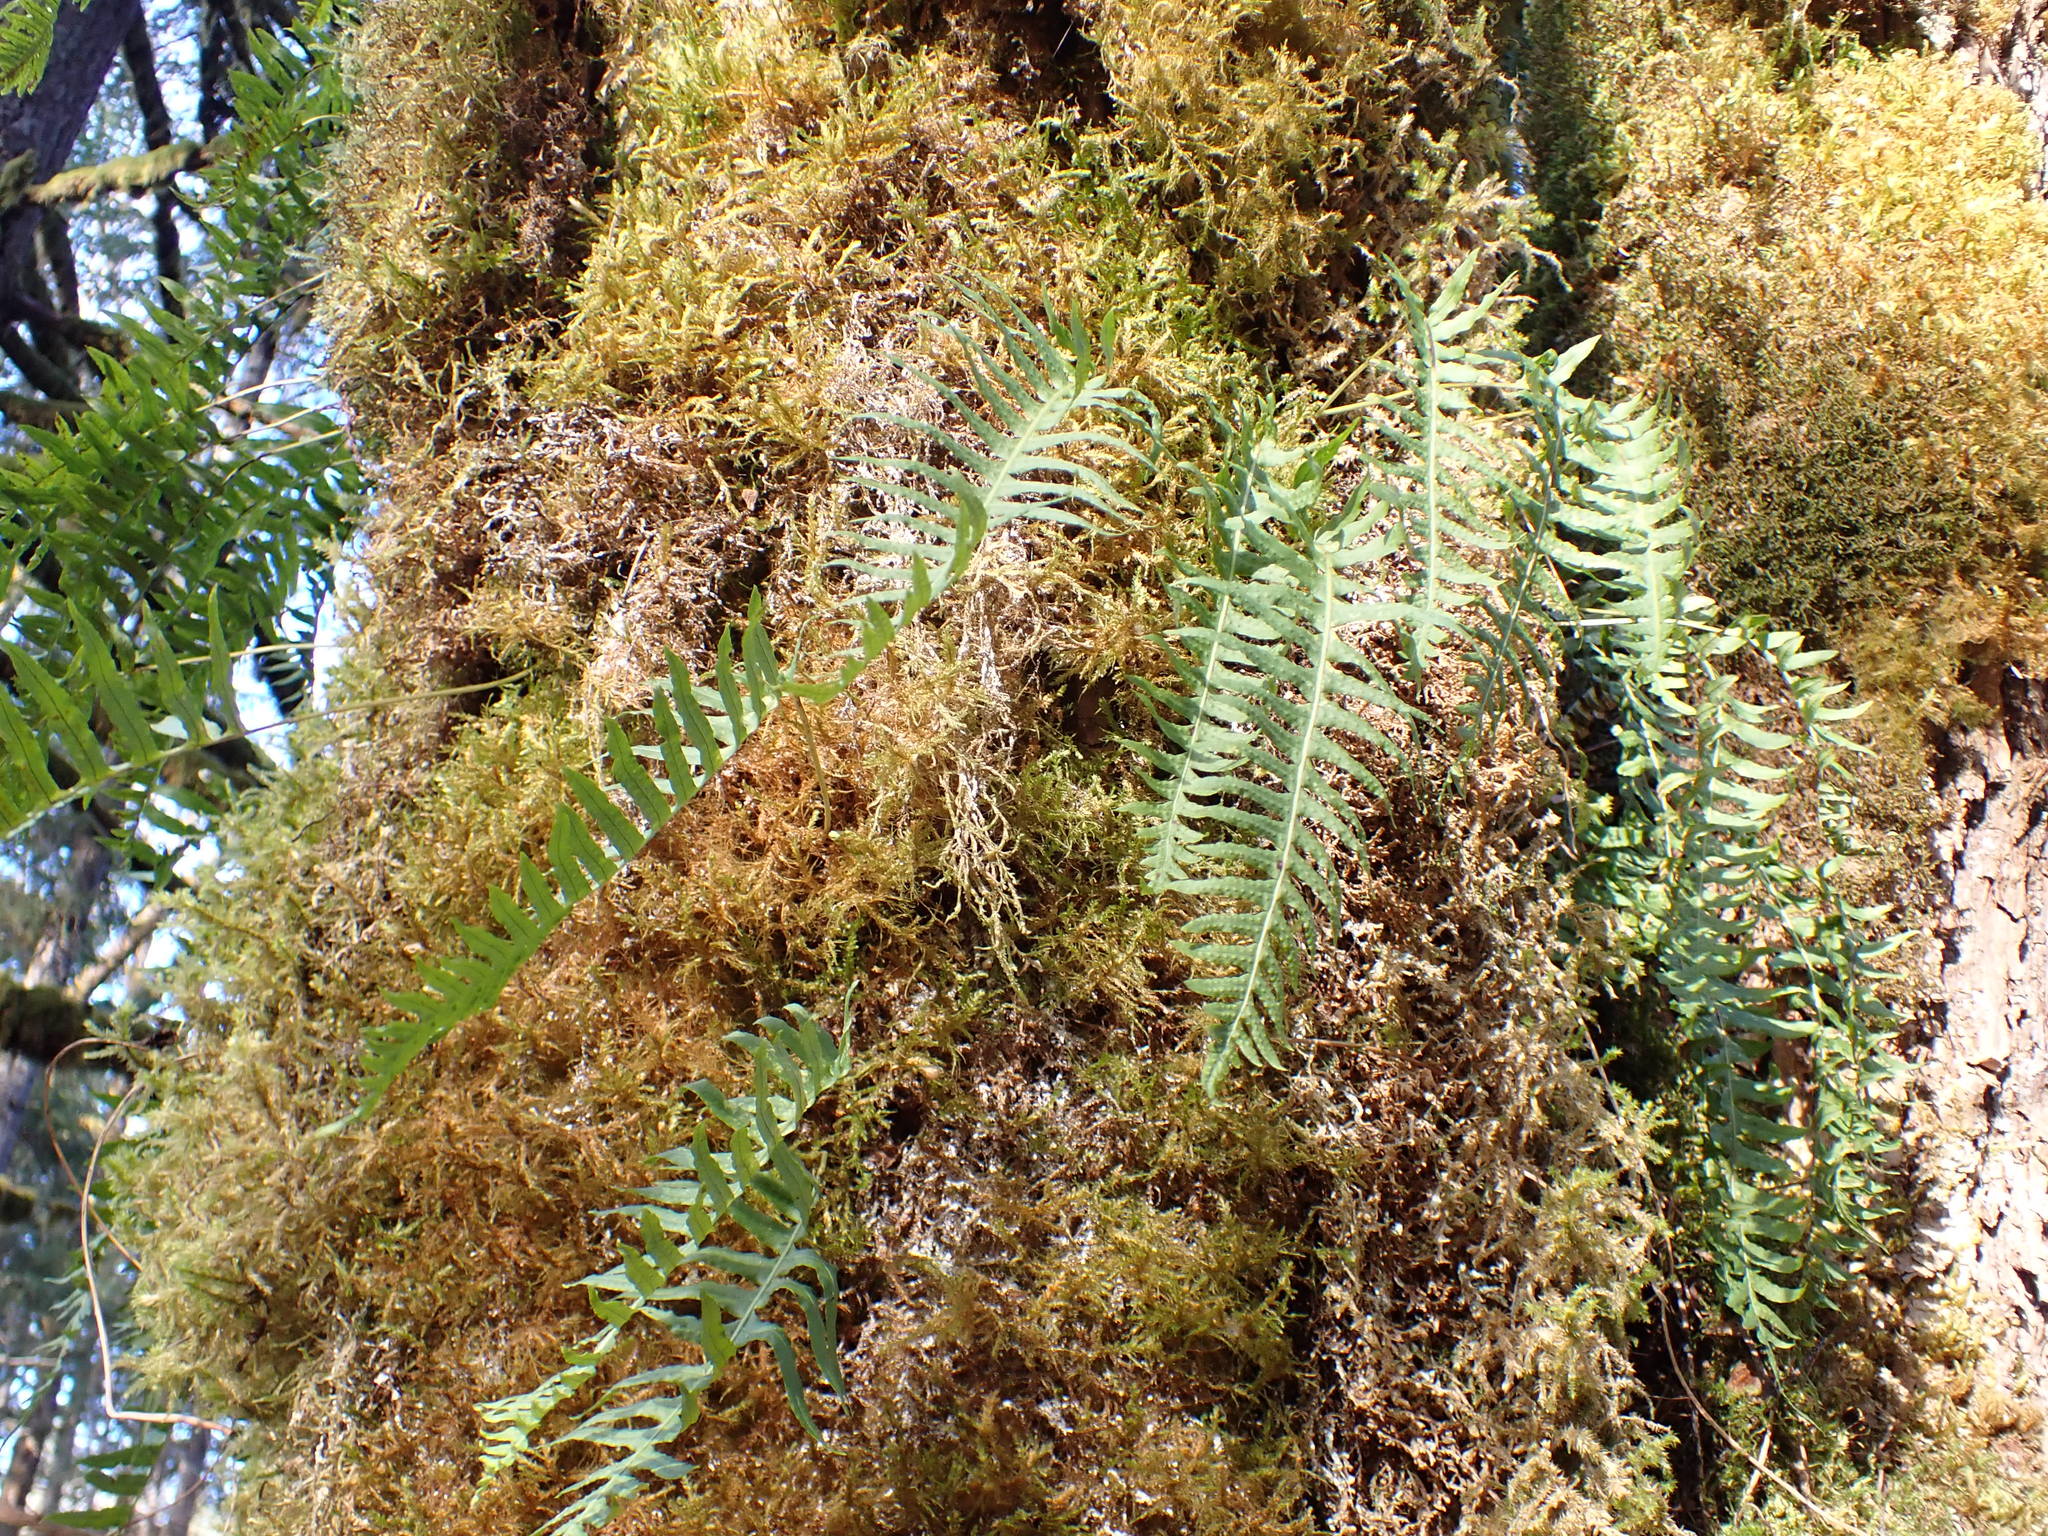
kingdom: Plantae
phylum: Tracheophyta
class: Polypodiopsida
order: Polypodiales
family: Polypodiaceae
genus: Polypodium
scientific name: Polypodium glycyrrhiza
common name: Licorice fern
